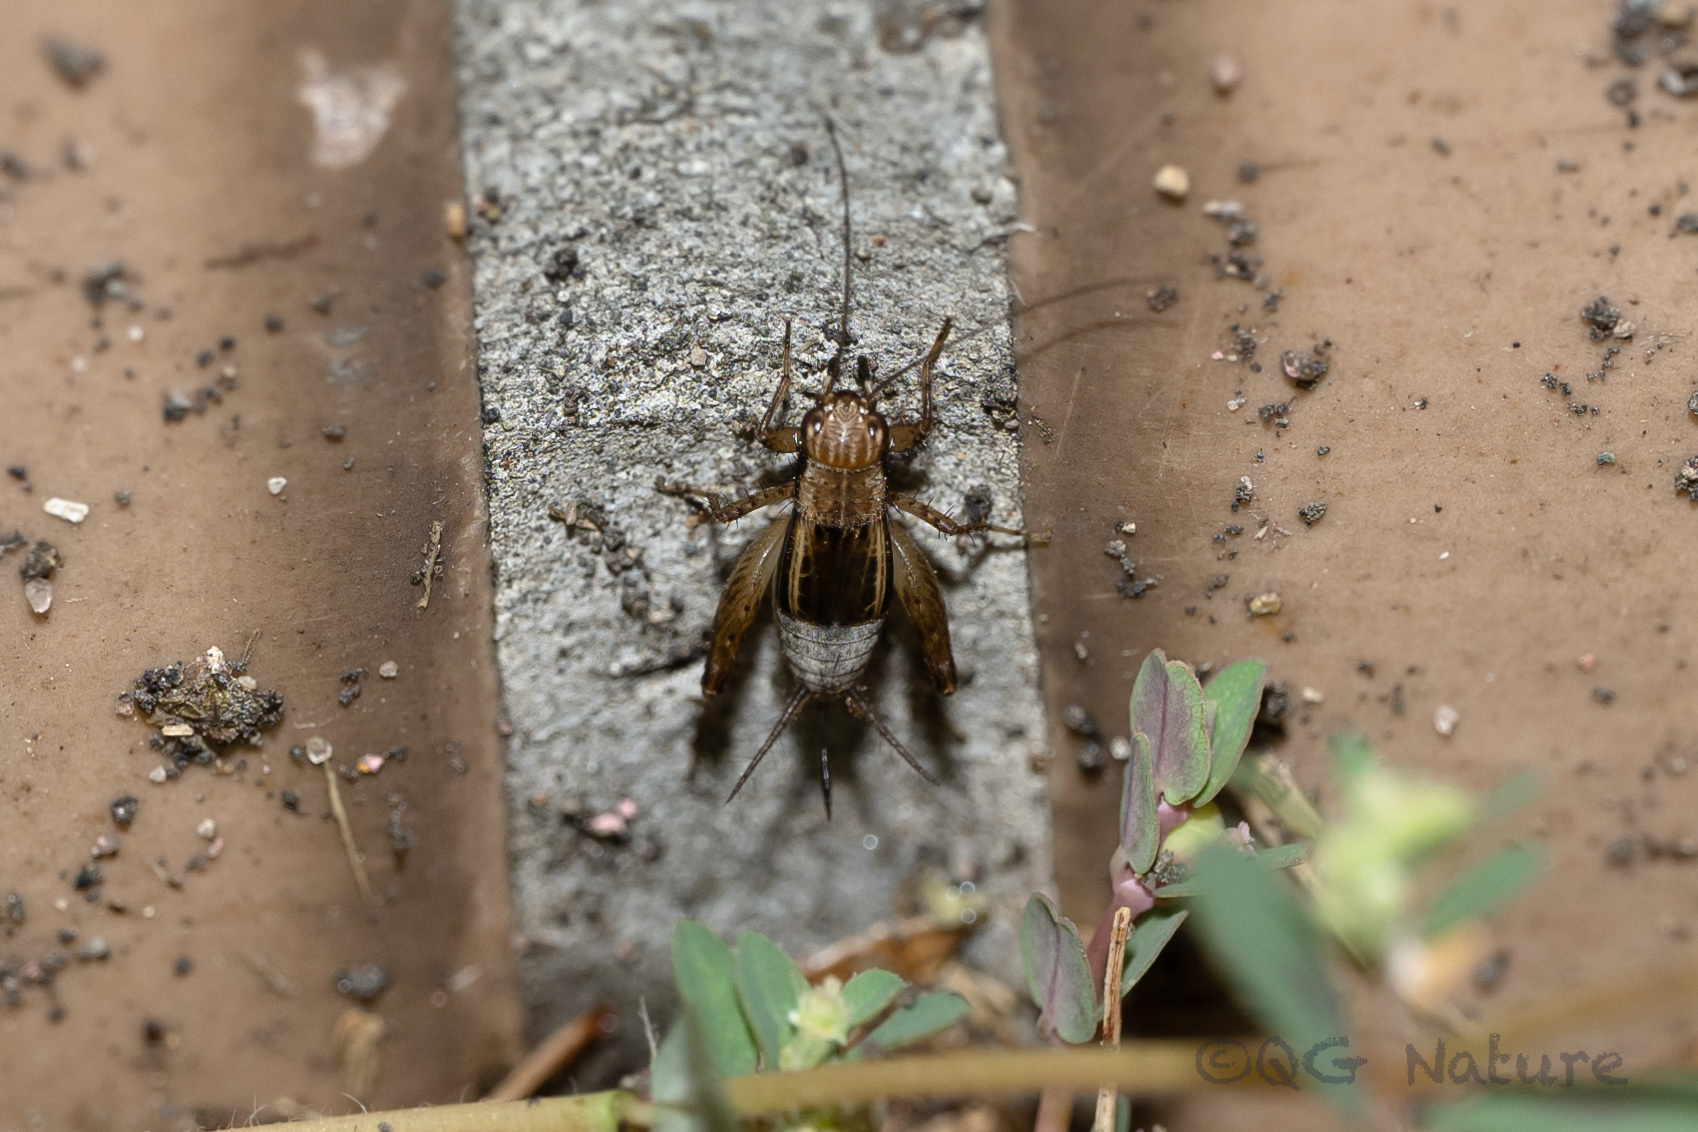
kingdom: Animalia
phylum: Arthropoda
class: Insecta
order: Orthoptera
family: Trigonidiidae
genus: Polionemobius
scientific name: Polionemobius taprobanense
